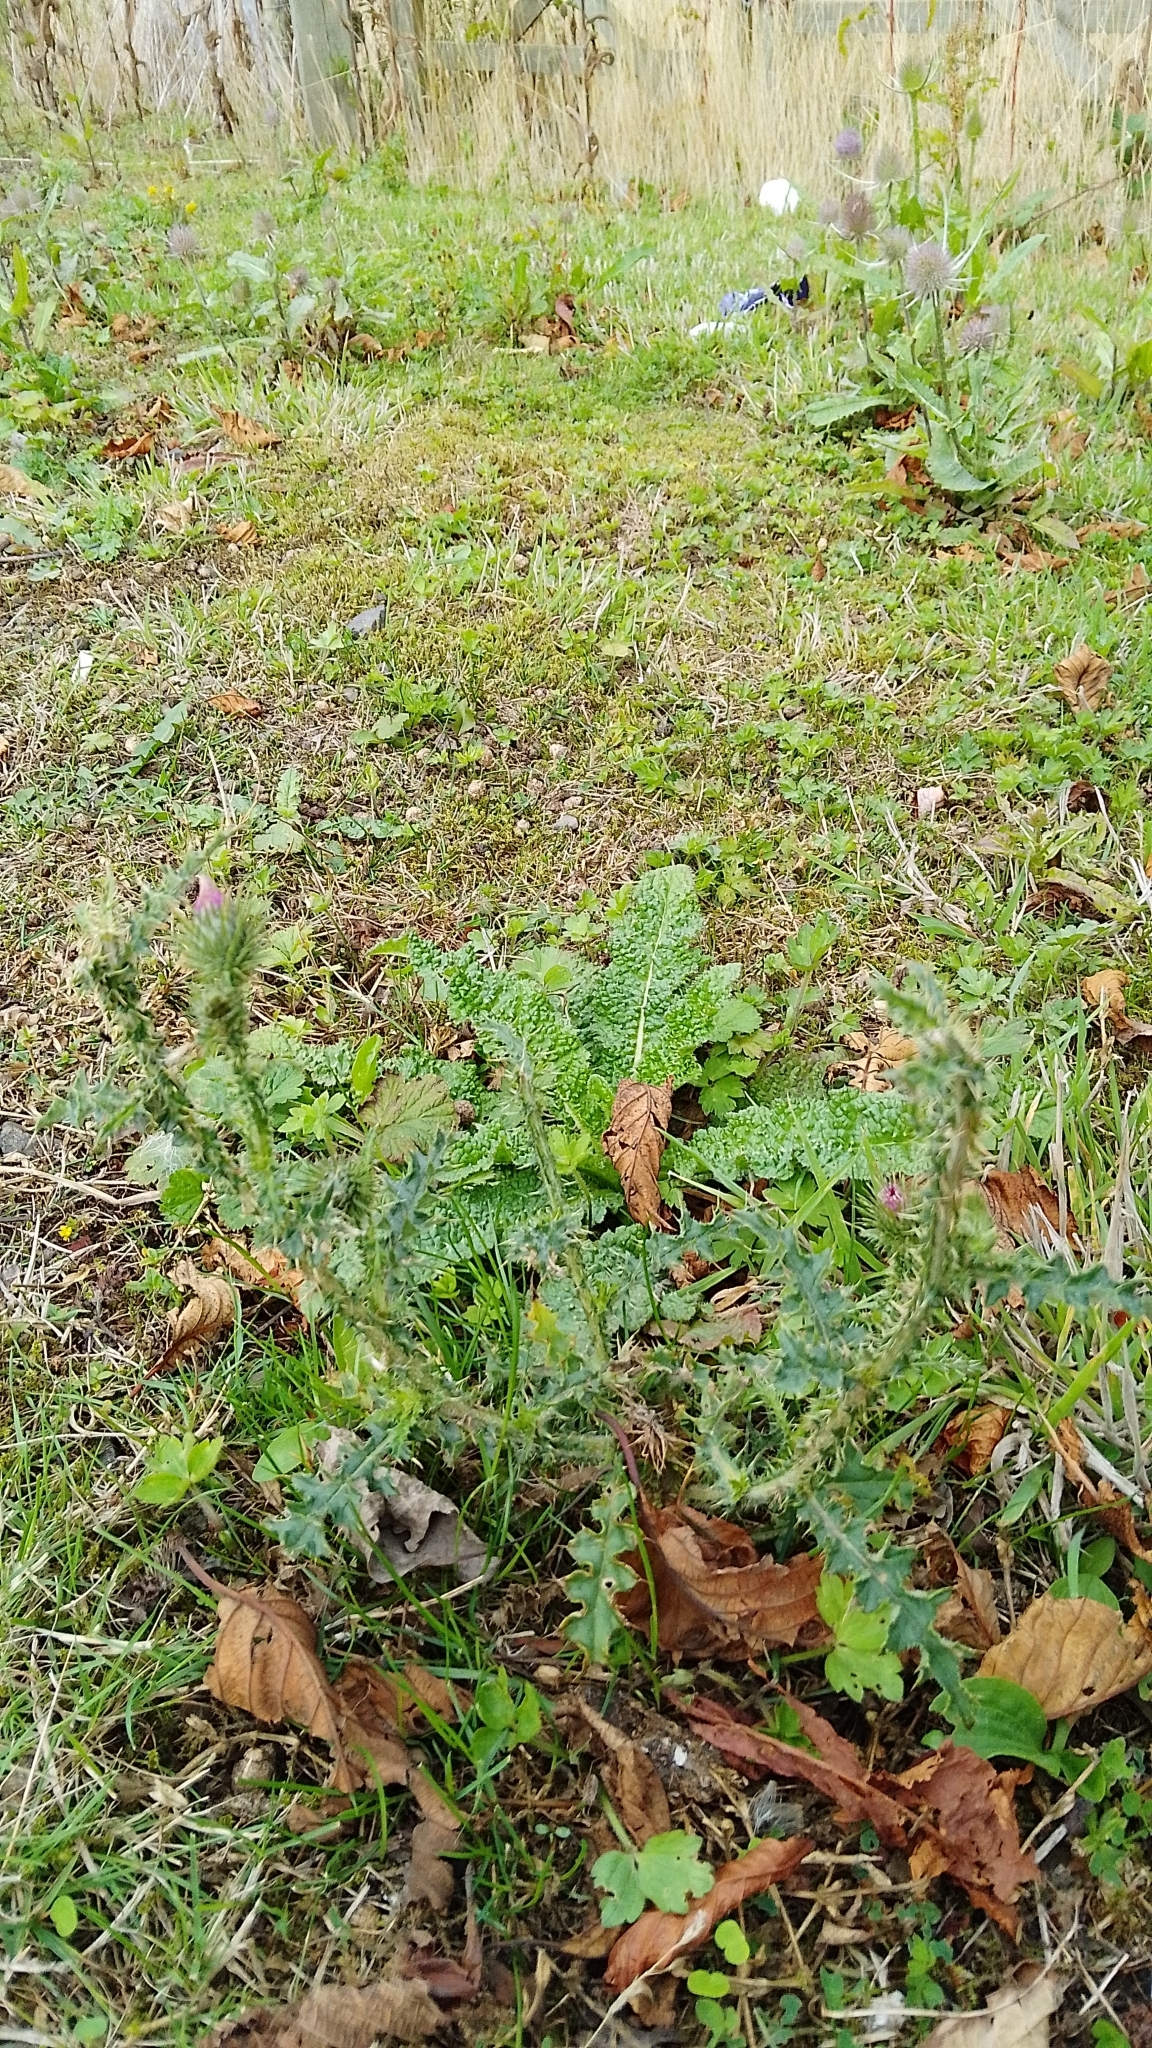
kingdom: Plantae
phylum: Tracheophyta
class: Magnoliopsida
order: Asterales
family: Asteraceae
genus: Carduus
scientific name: Carduus crispus
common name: Welted thistle
